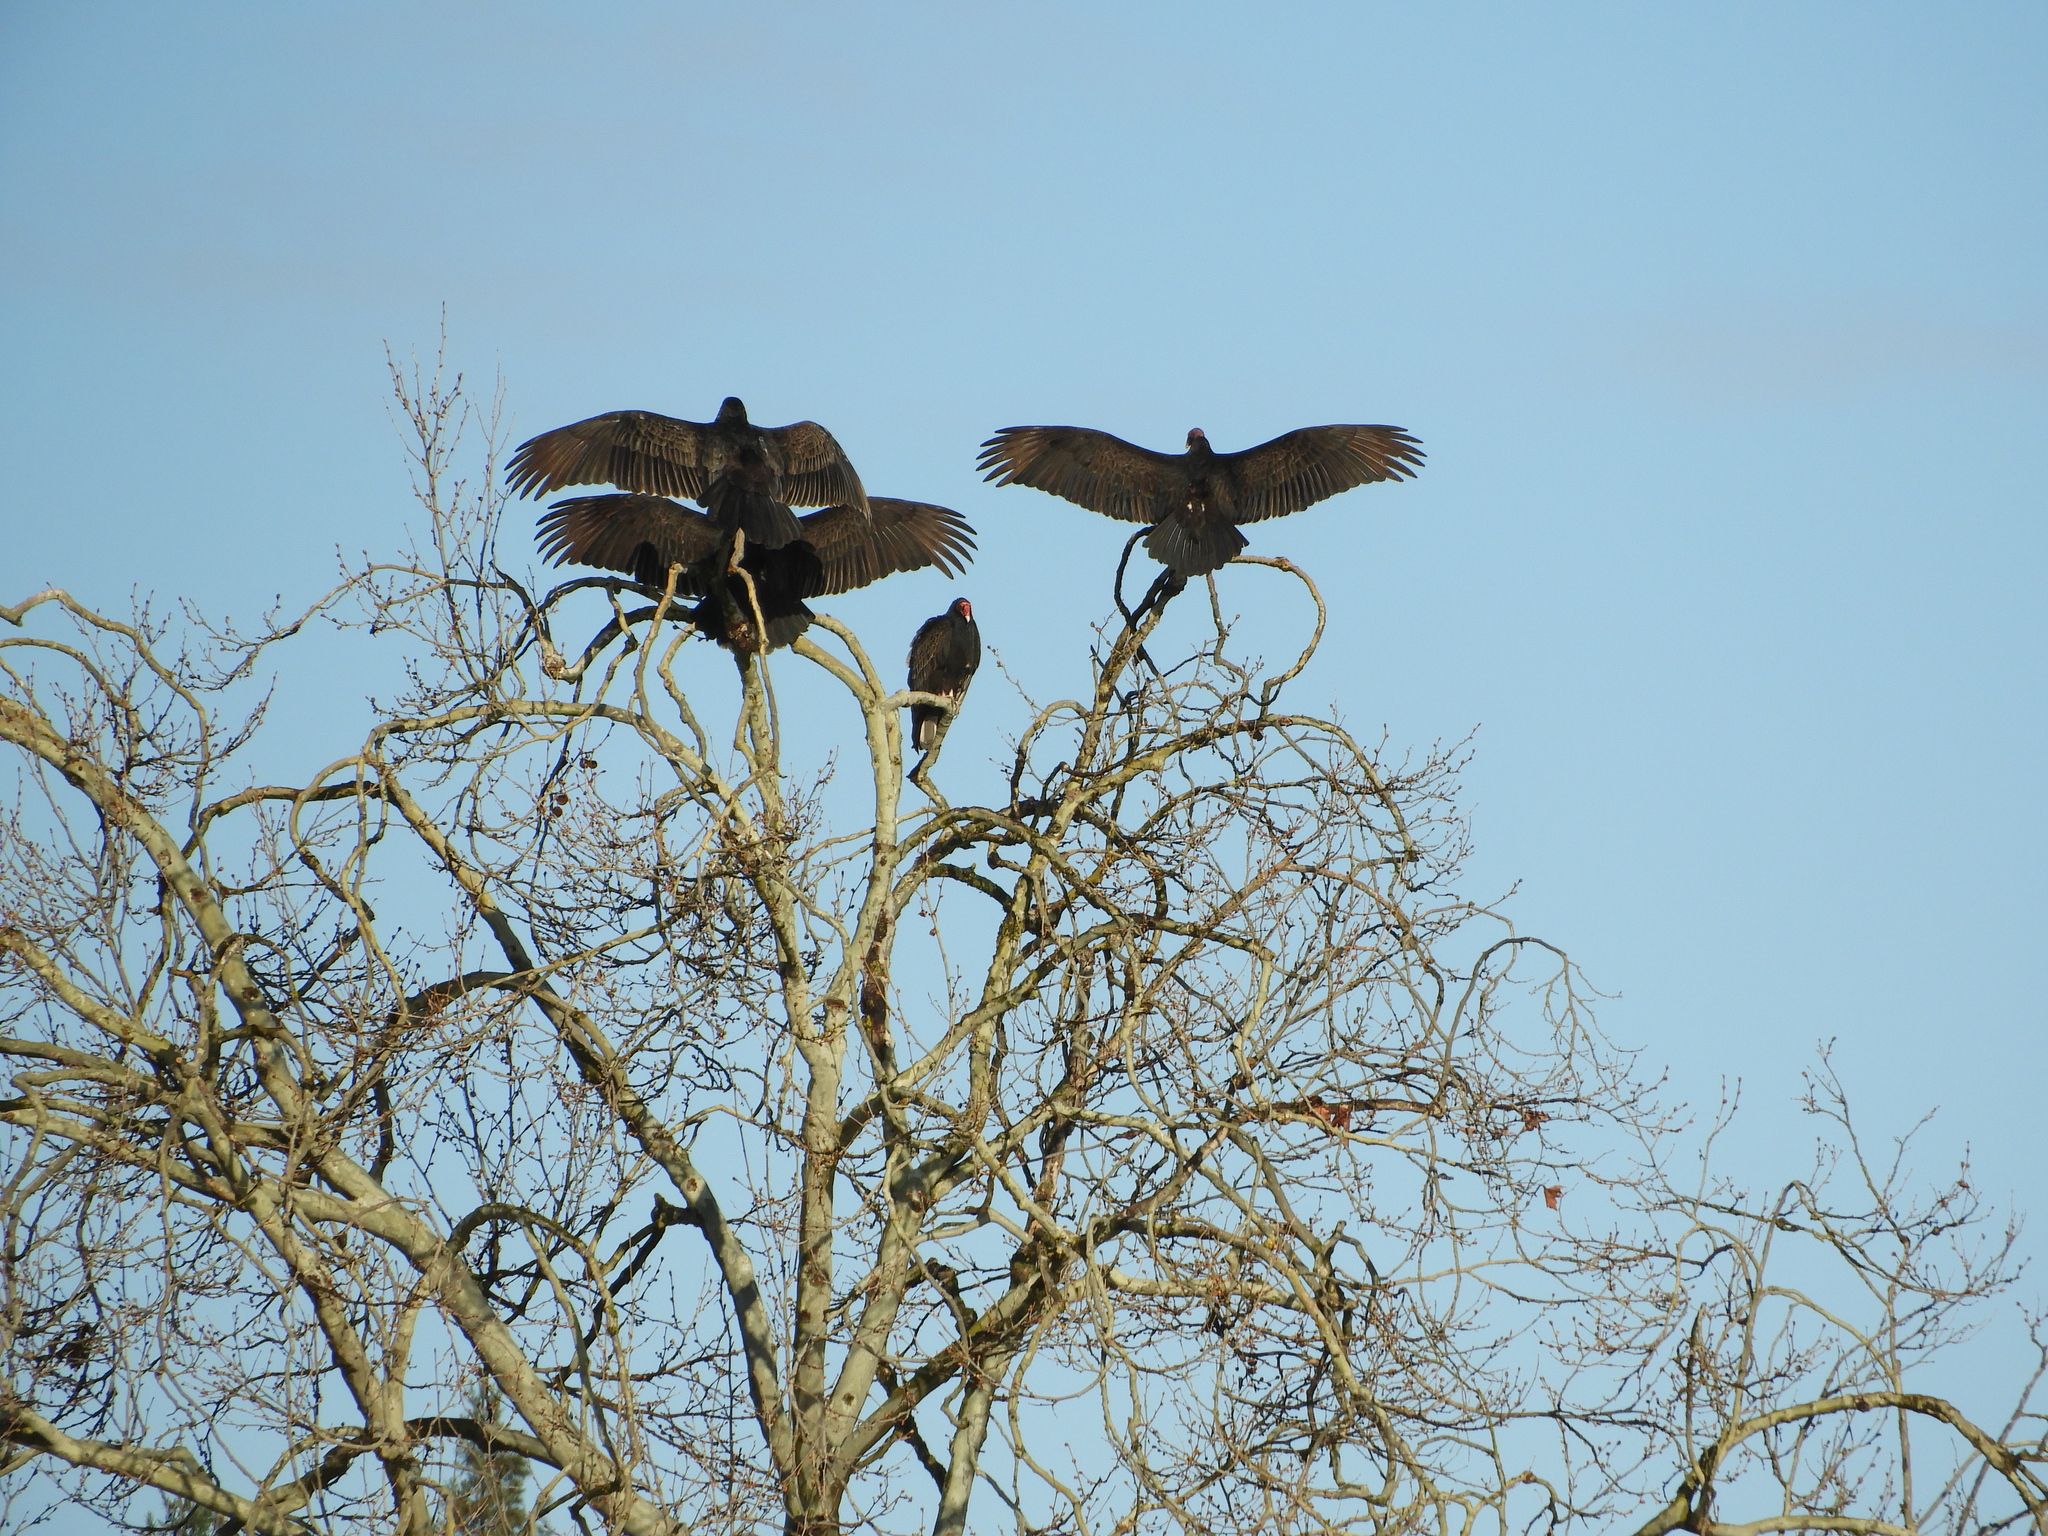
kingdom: Animalia
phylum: Chordata
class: Aves
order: Accipitriformes
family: Cathartidae
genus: Cathartes
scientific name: Cathartes aura
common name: Turkey vulture
